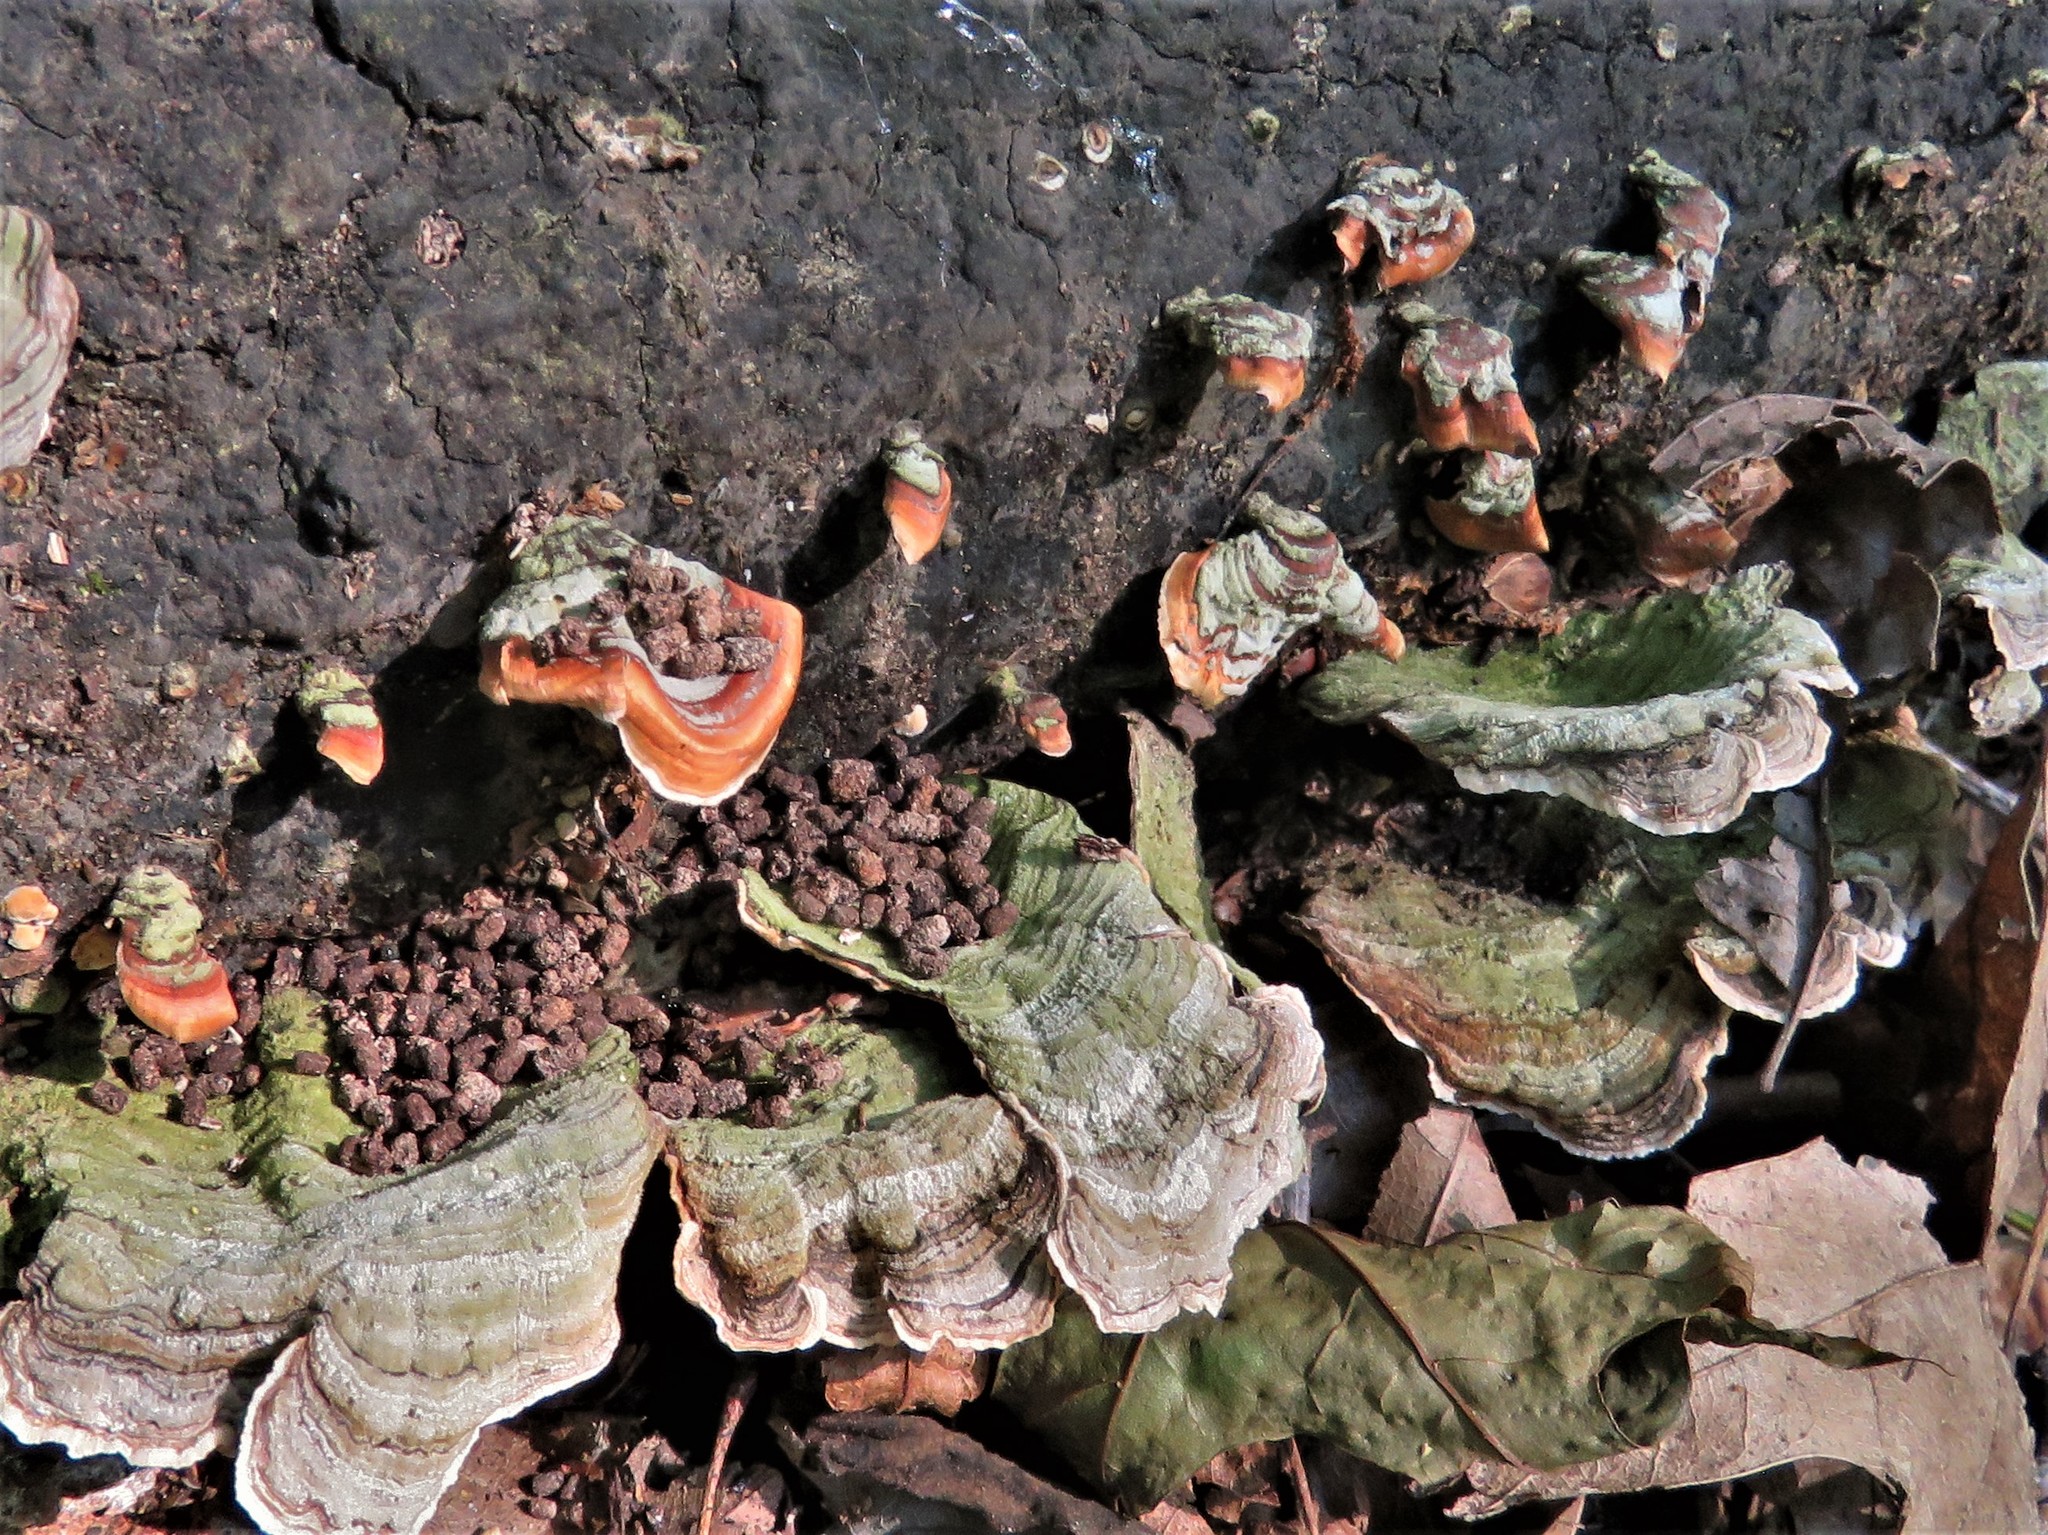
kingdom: Fungi
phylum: Basidiomycota
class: Agaricomycetes
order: Russulales
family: Stereaceae
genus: Stereum
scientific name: Stereum ostrea
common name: False turkeytail
